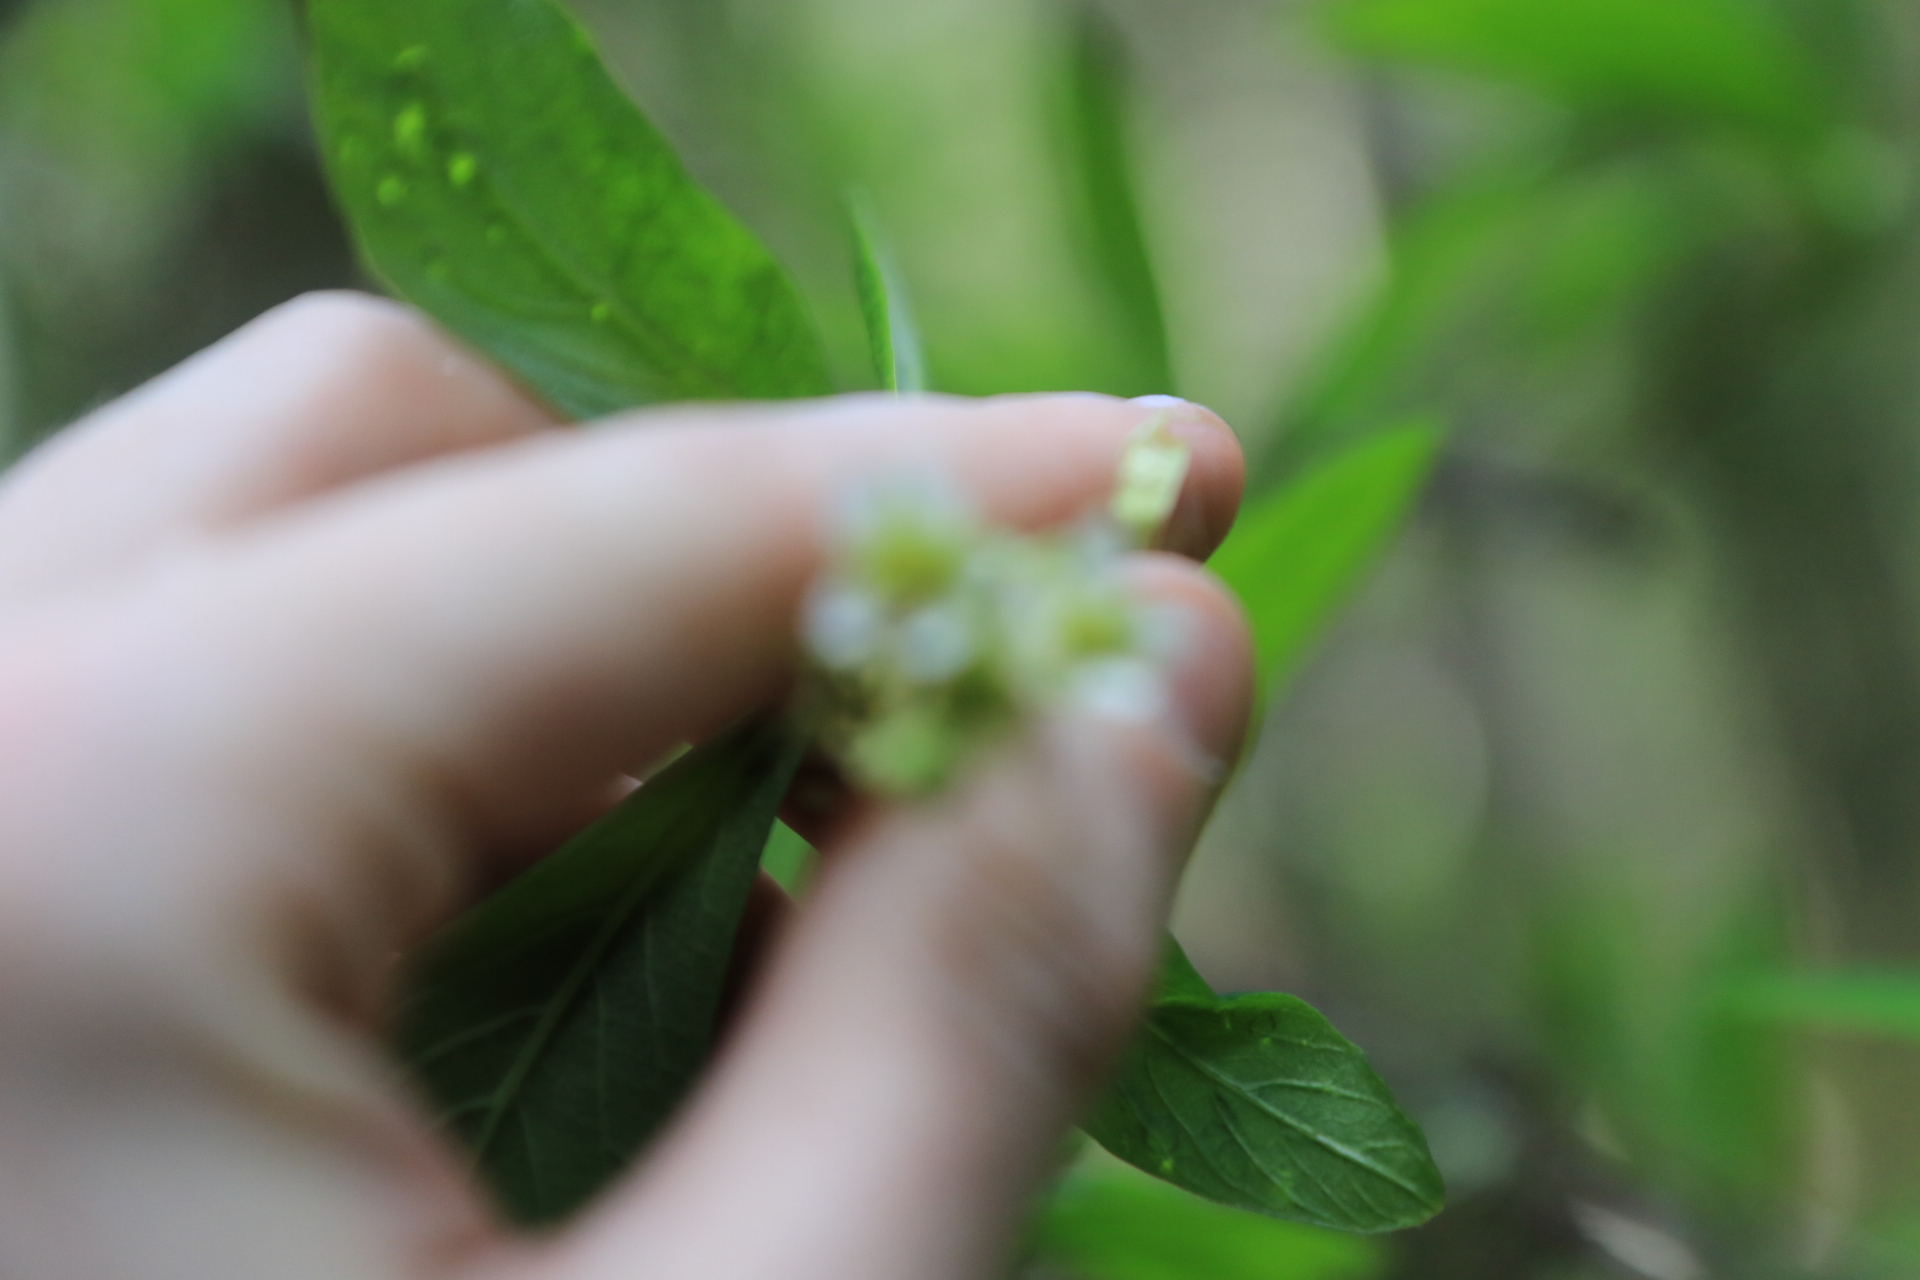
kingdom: Plantae
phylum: Tracheophyta
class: Magnoliopsida
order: Rosales
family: Rosaceae
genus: Oemleria
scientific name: Oemleria cerasiformis
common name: Osoberry
